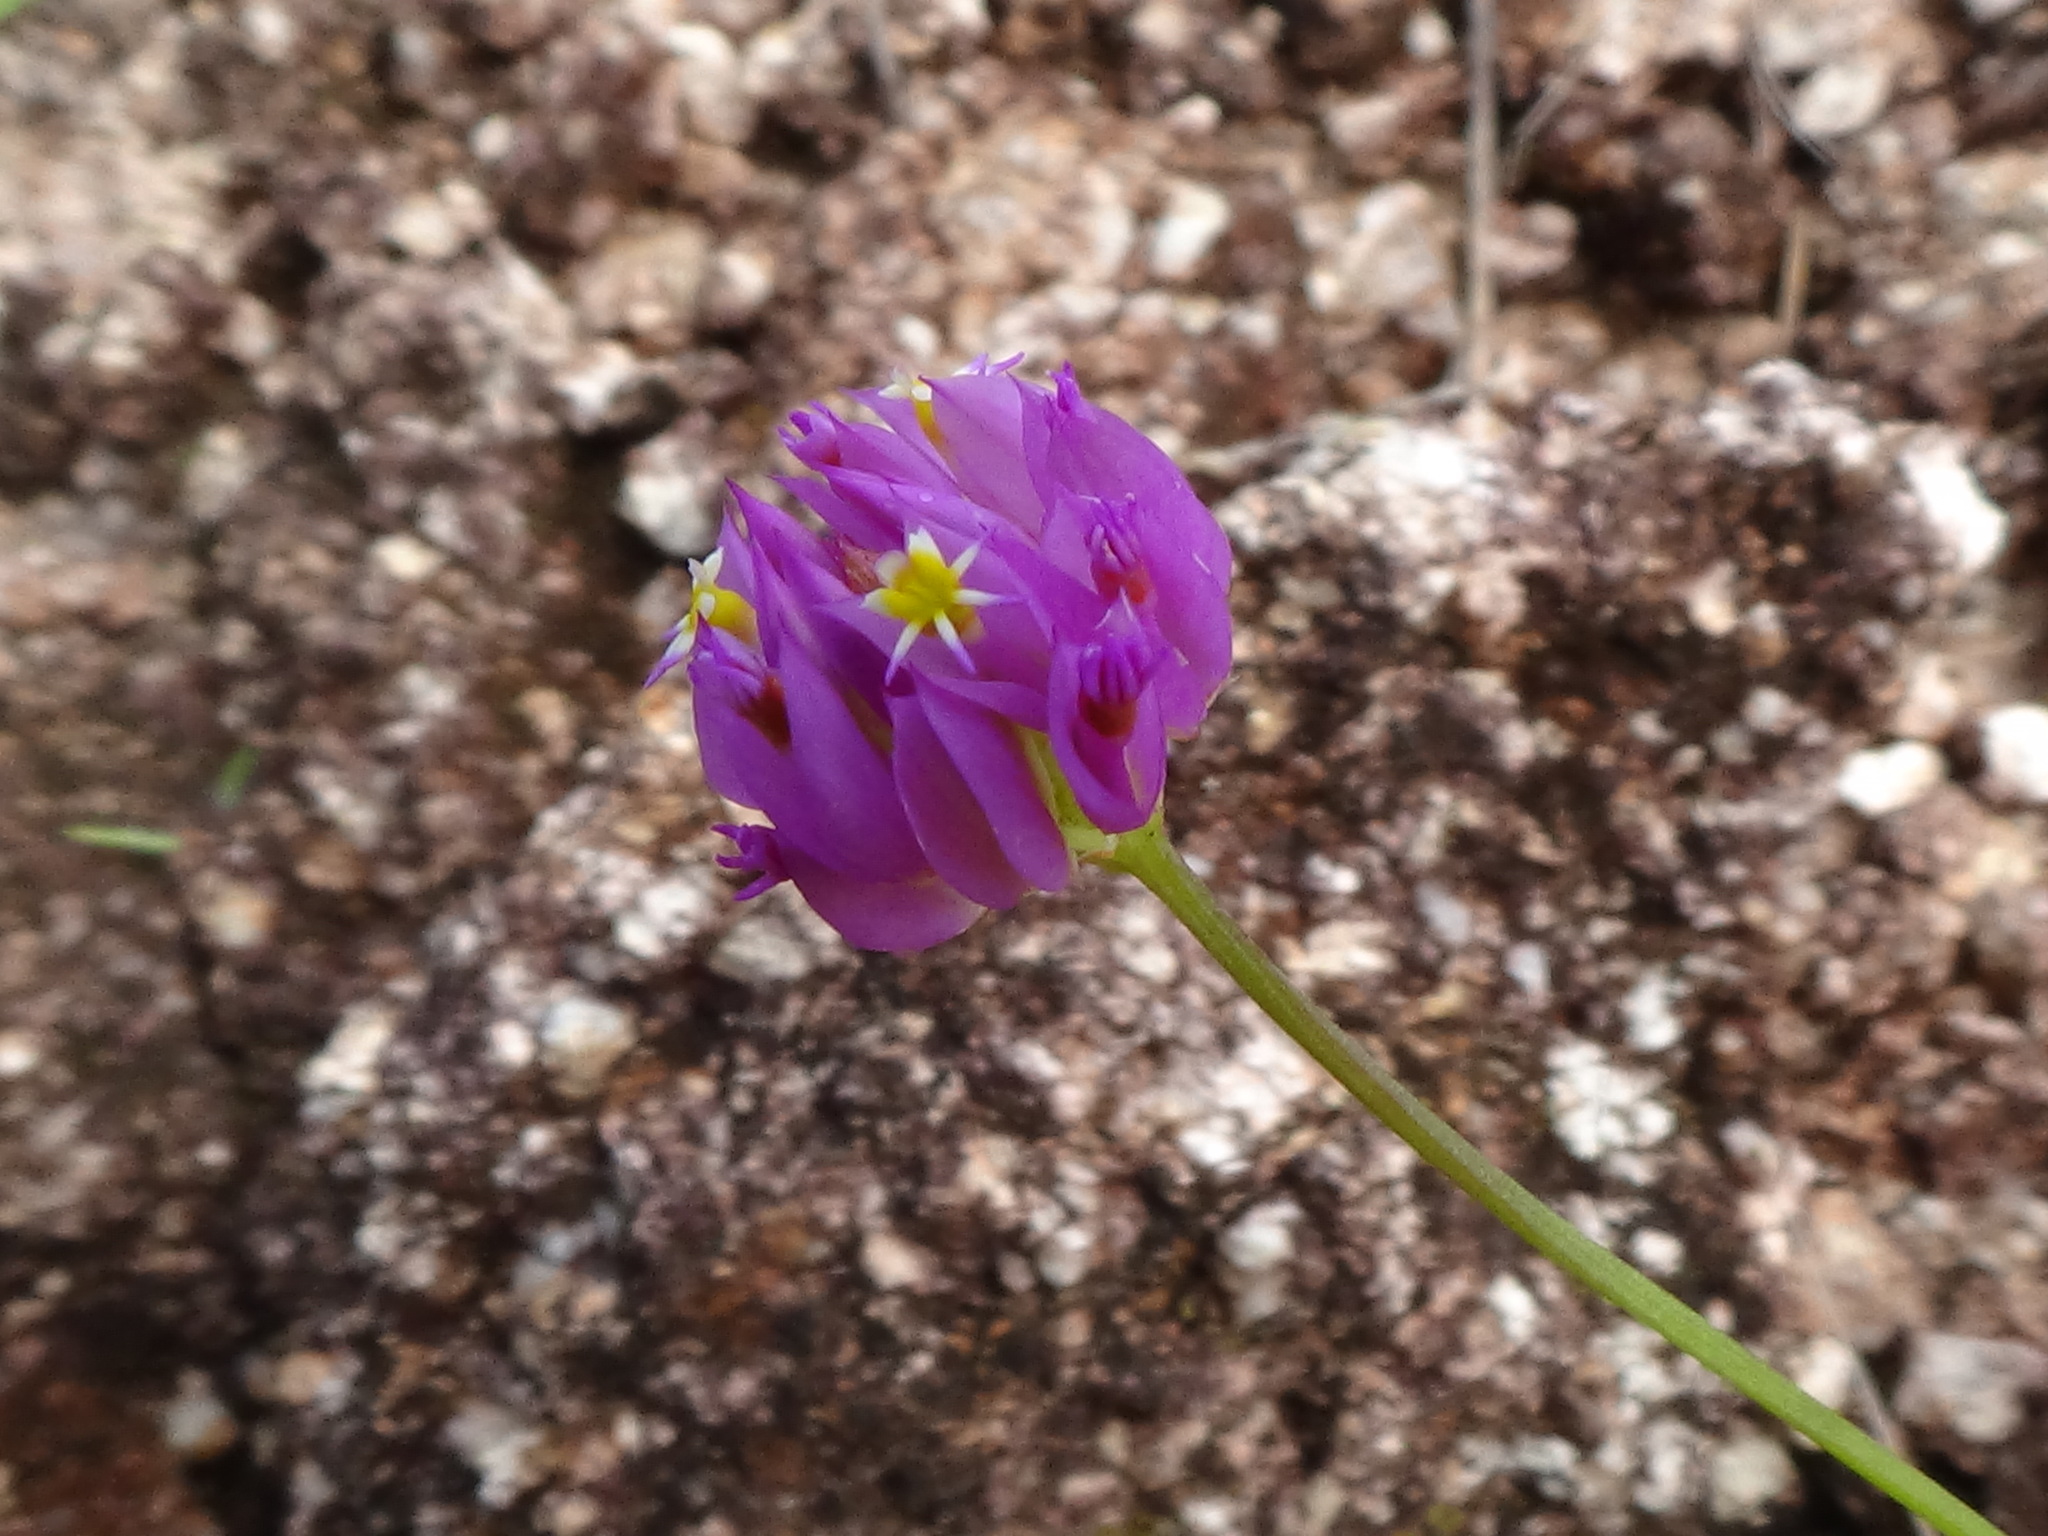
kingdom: Plantae
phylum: Tracheophyta
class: Magnoliopsida
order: Fabales
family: Polygalaceae
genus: Polygala
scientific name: Polygala longicaulis
